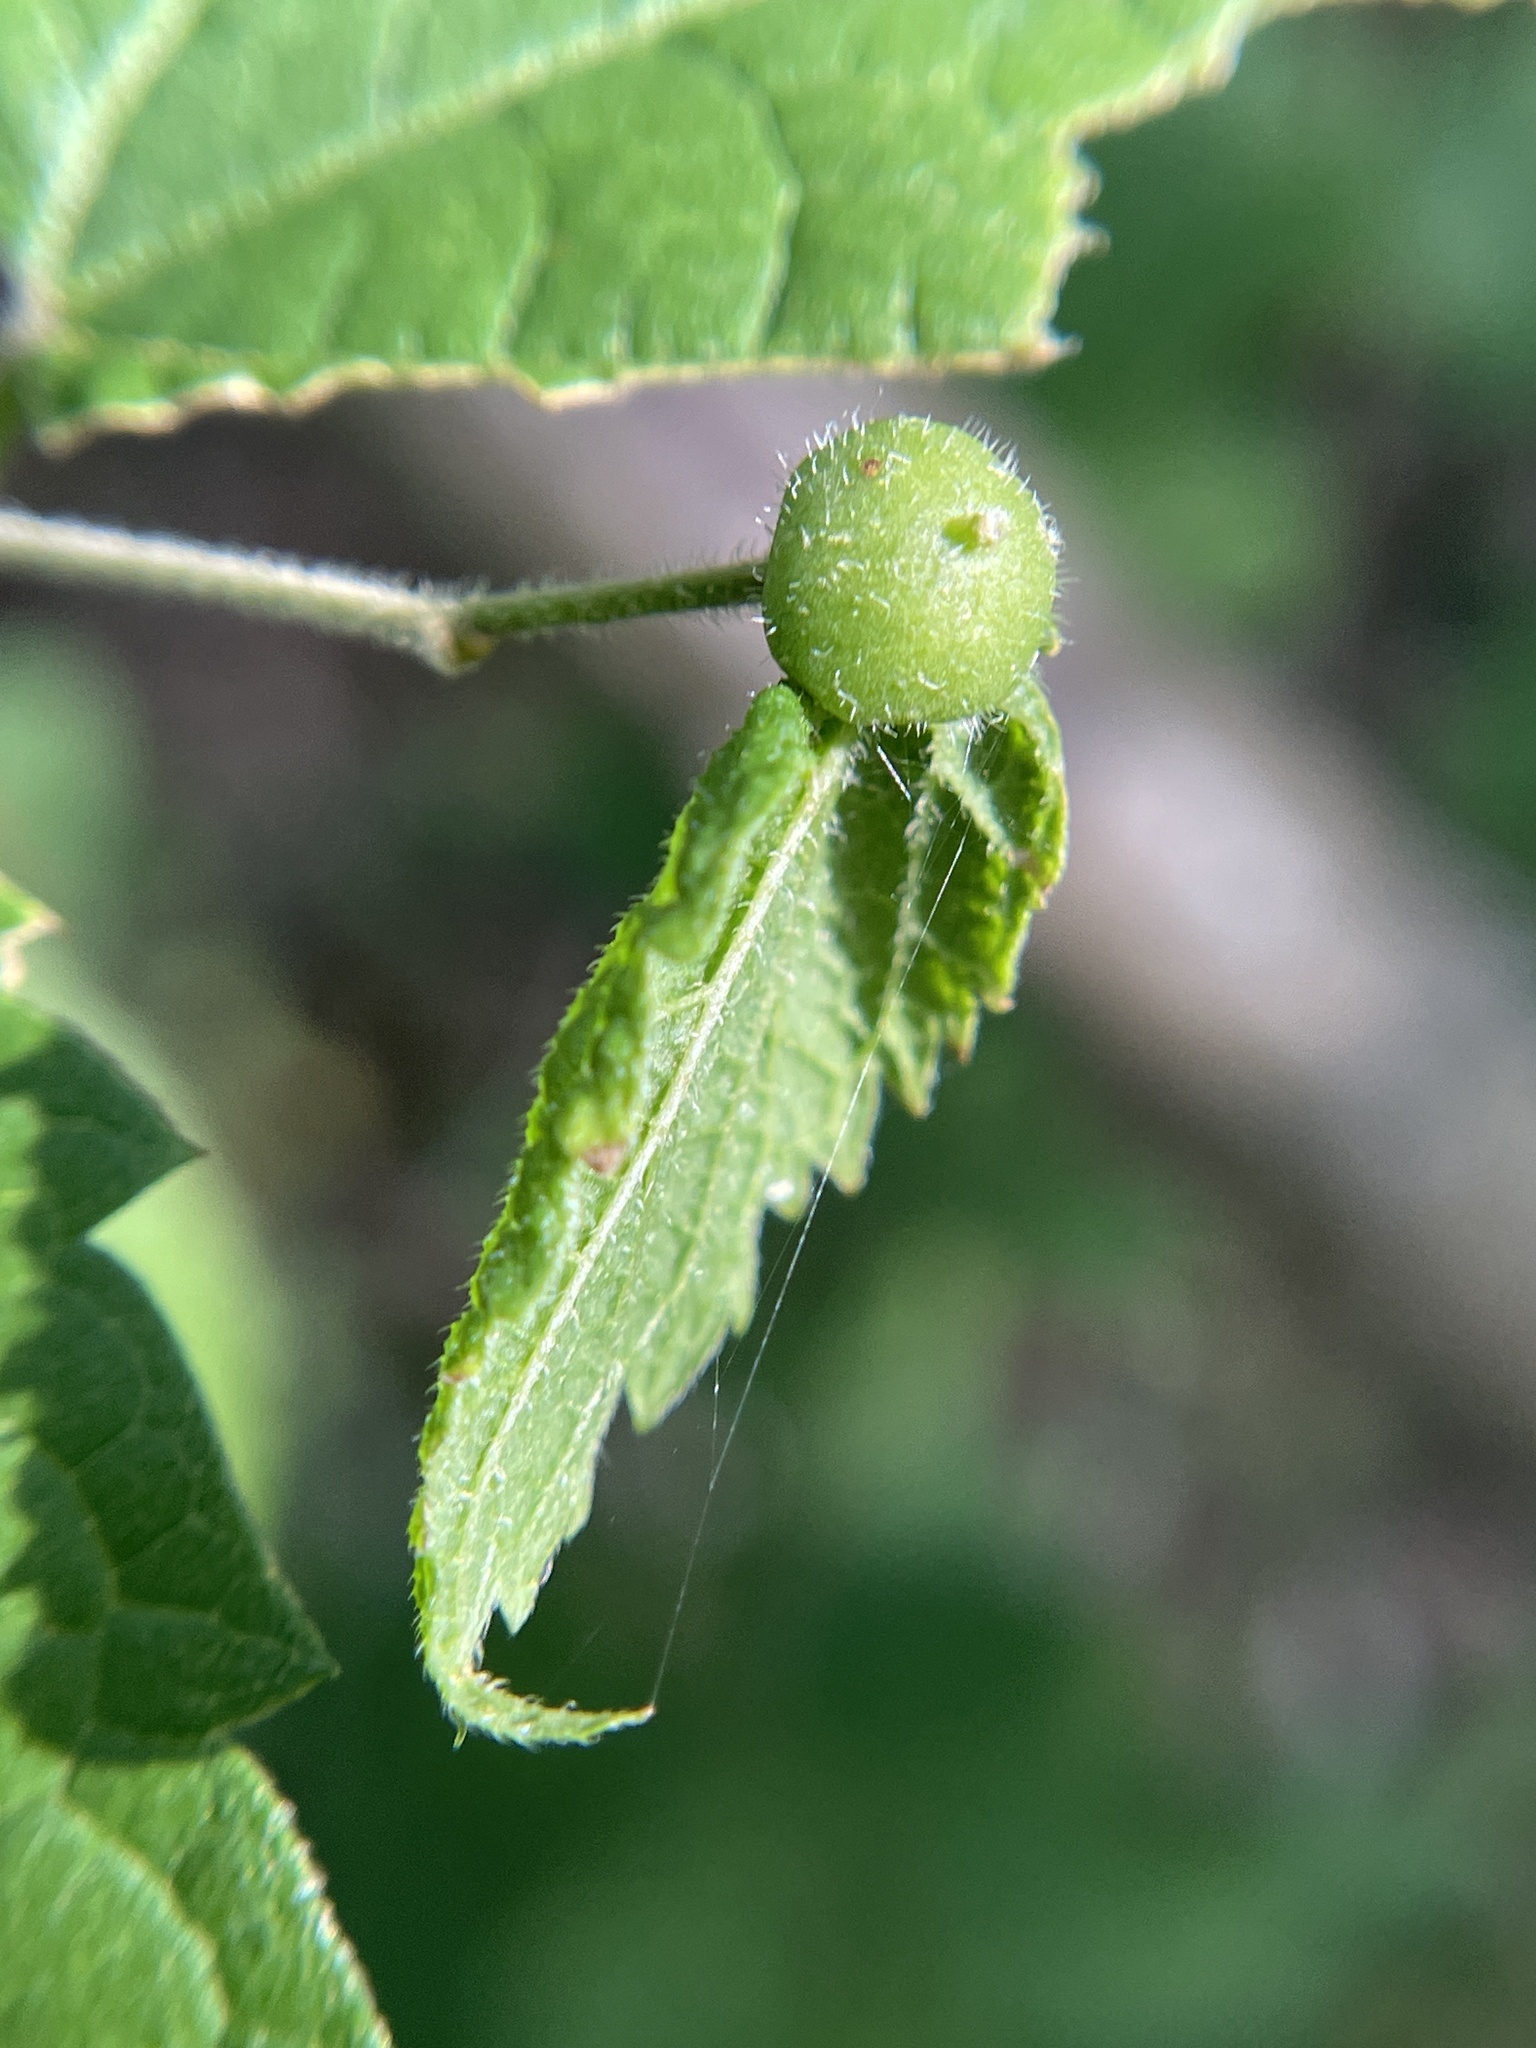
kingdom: Animalia
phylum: Arthropoda
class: Insecta
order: Diptera
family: Cecidomyiidae
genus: Celticecis
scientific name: Celticecis connata
